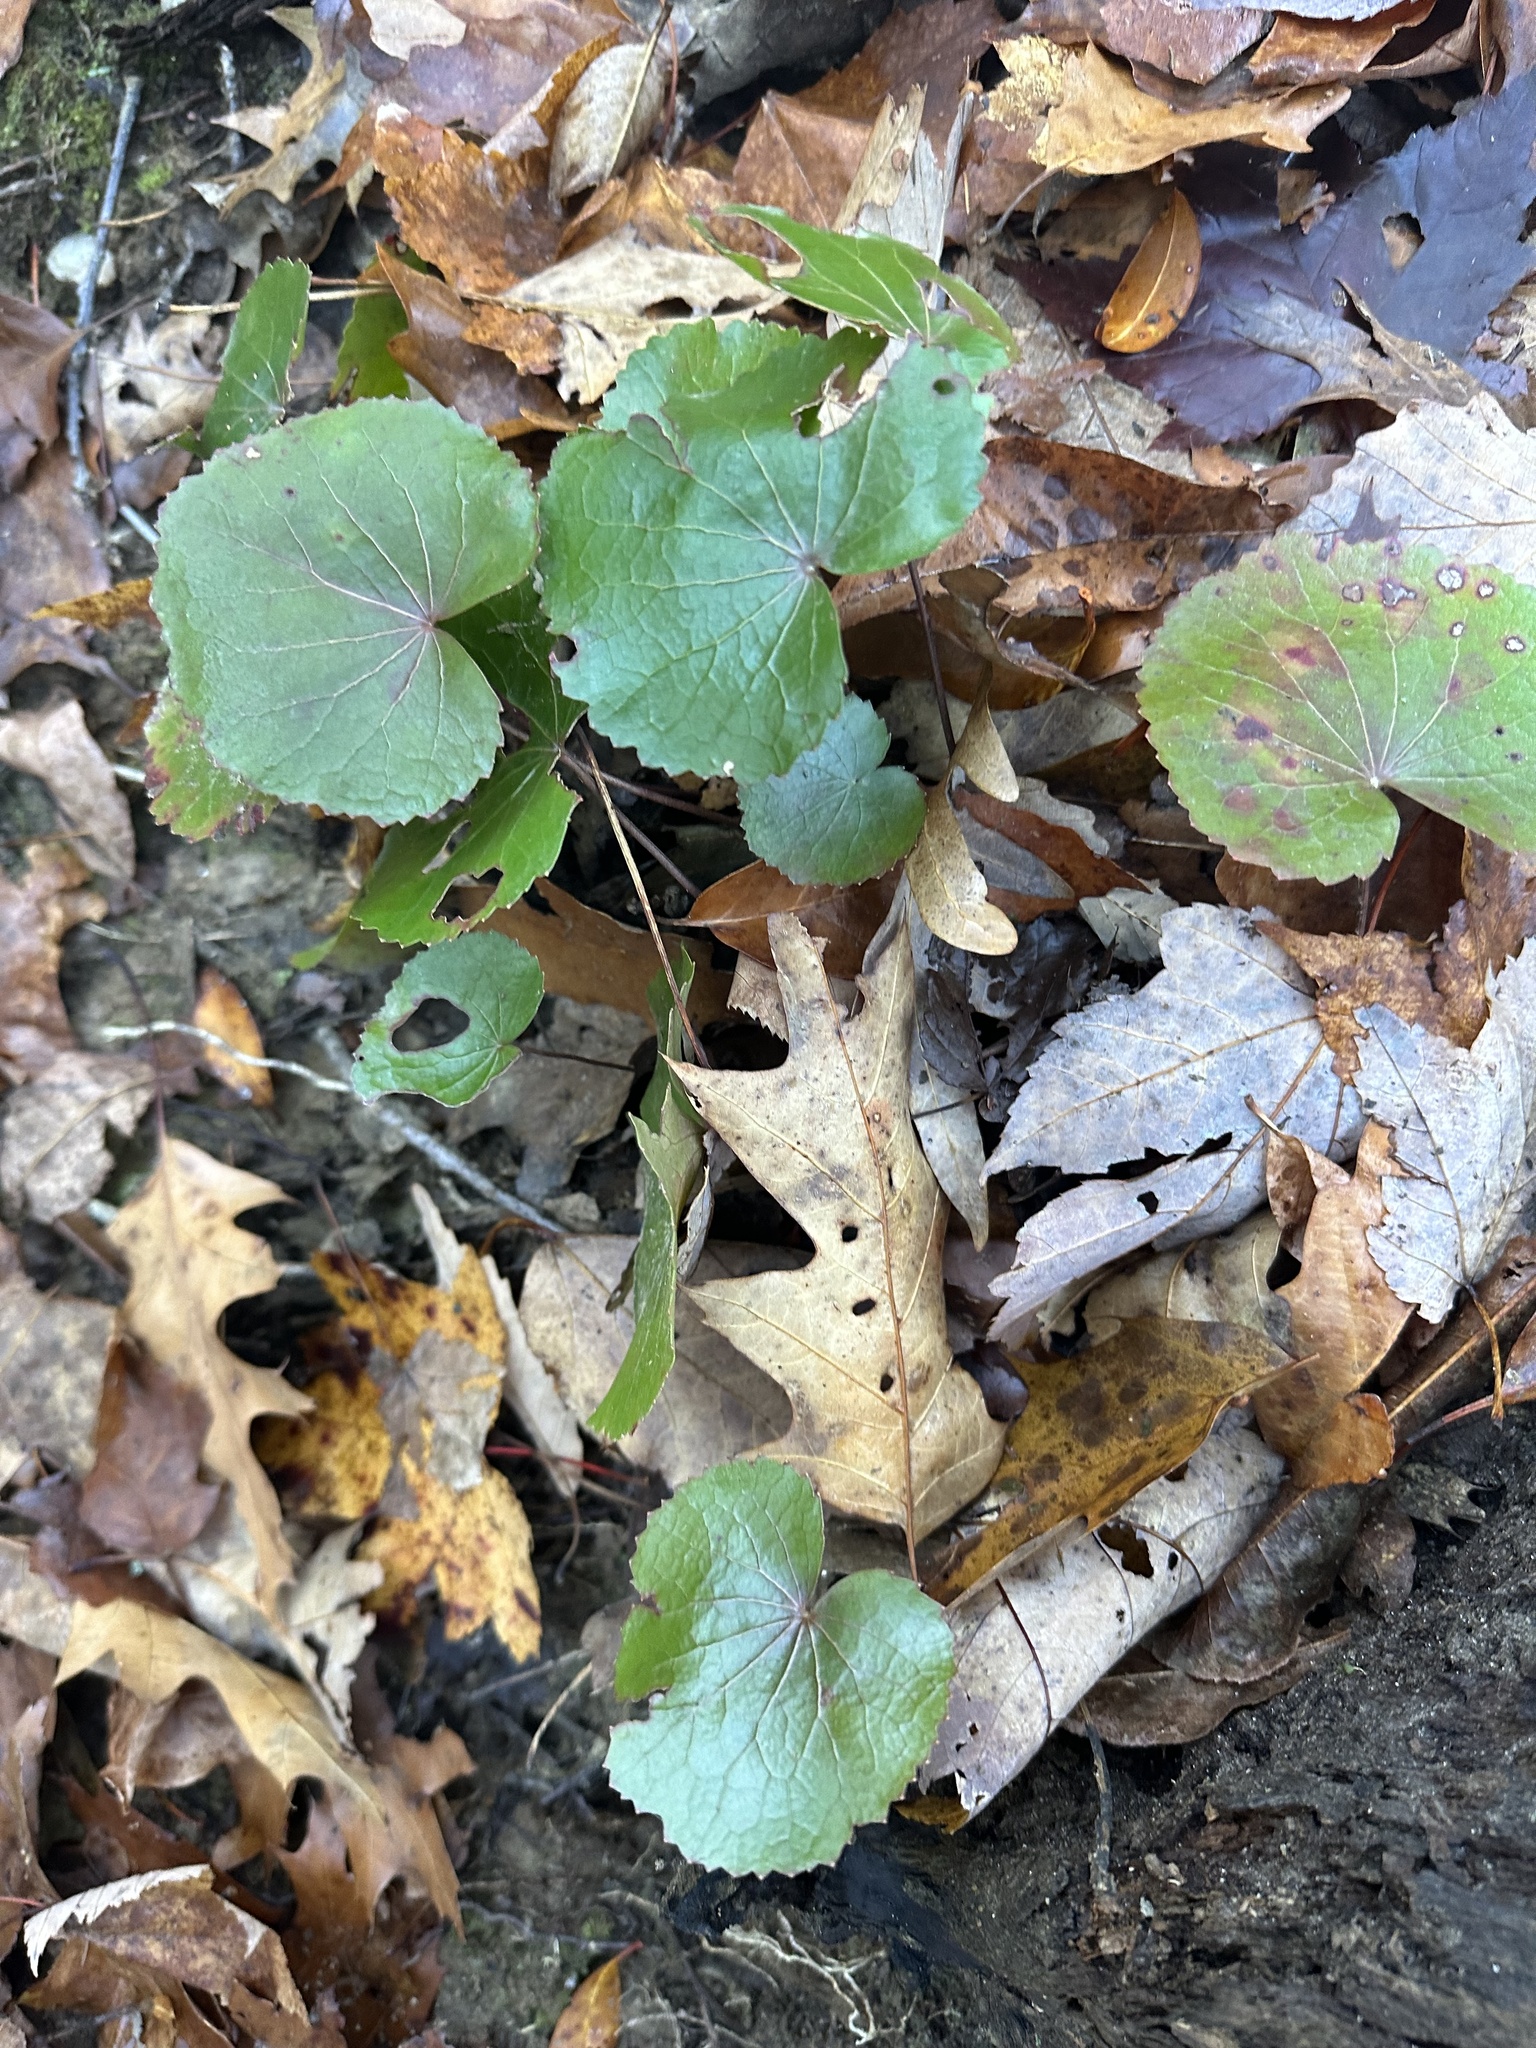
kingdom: Plantae
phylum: Tracheophyta
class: Magnoliopsida
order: Ericales
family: Diapensiaceae
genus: Galax
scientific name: Galax urceolata
